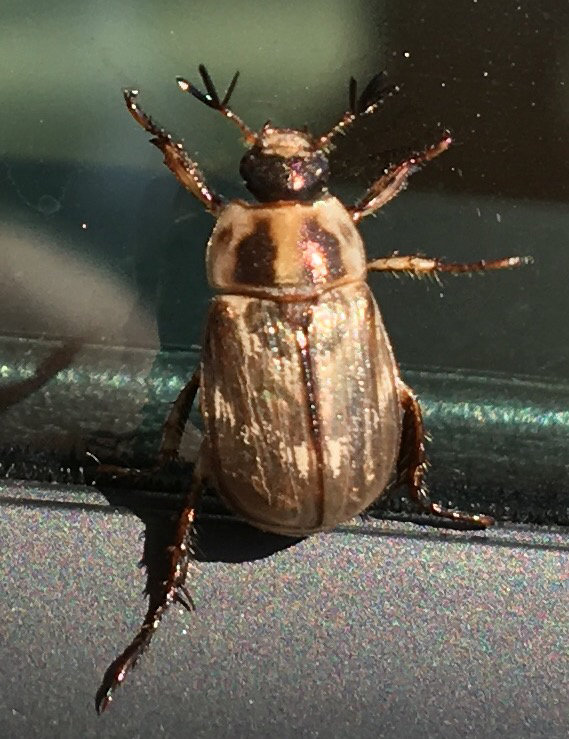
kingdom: Animalia
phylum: Arthropoda
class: Insecta
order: Coleoptera
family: Scarabaeidae
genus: Exomala
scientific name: Exomala orientalis
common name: Oriental beetle
